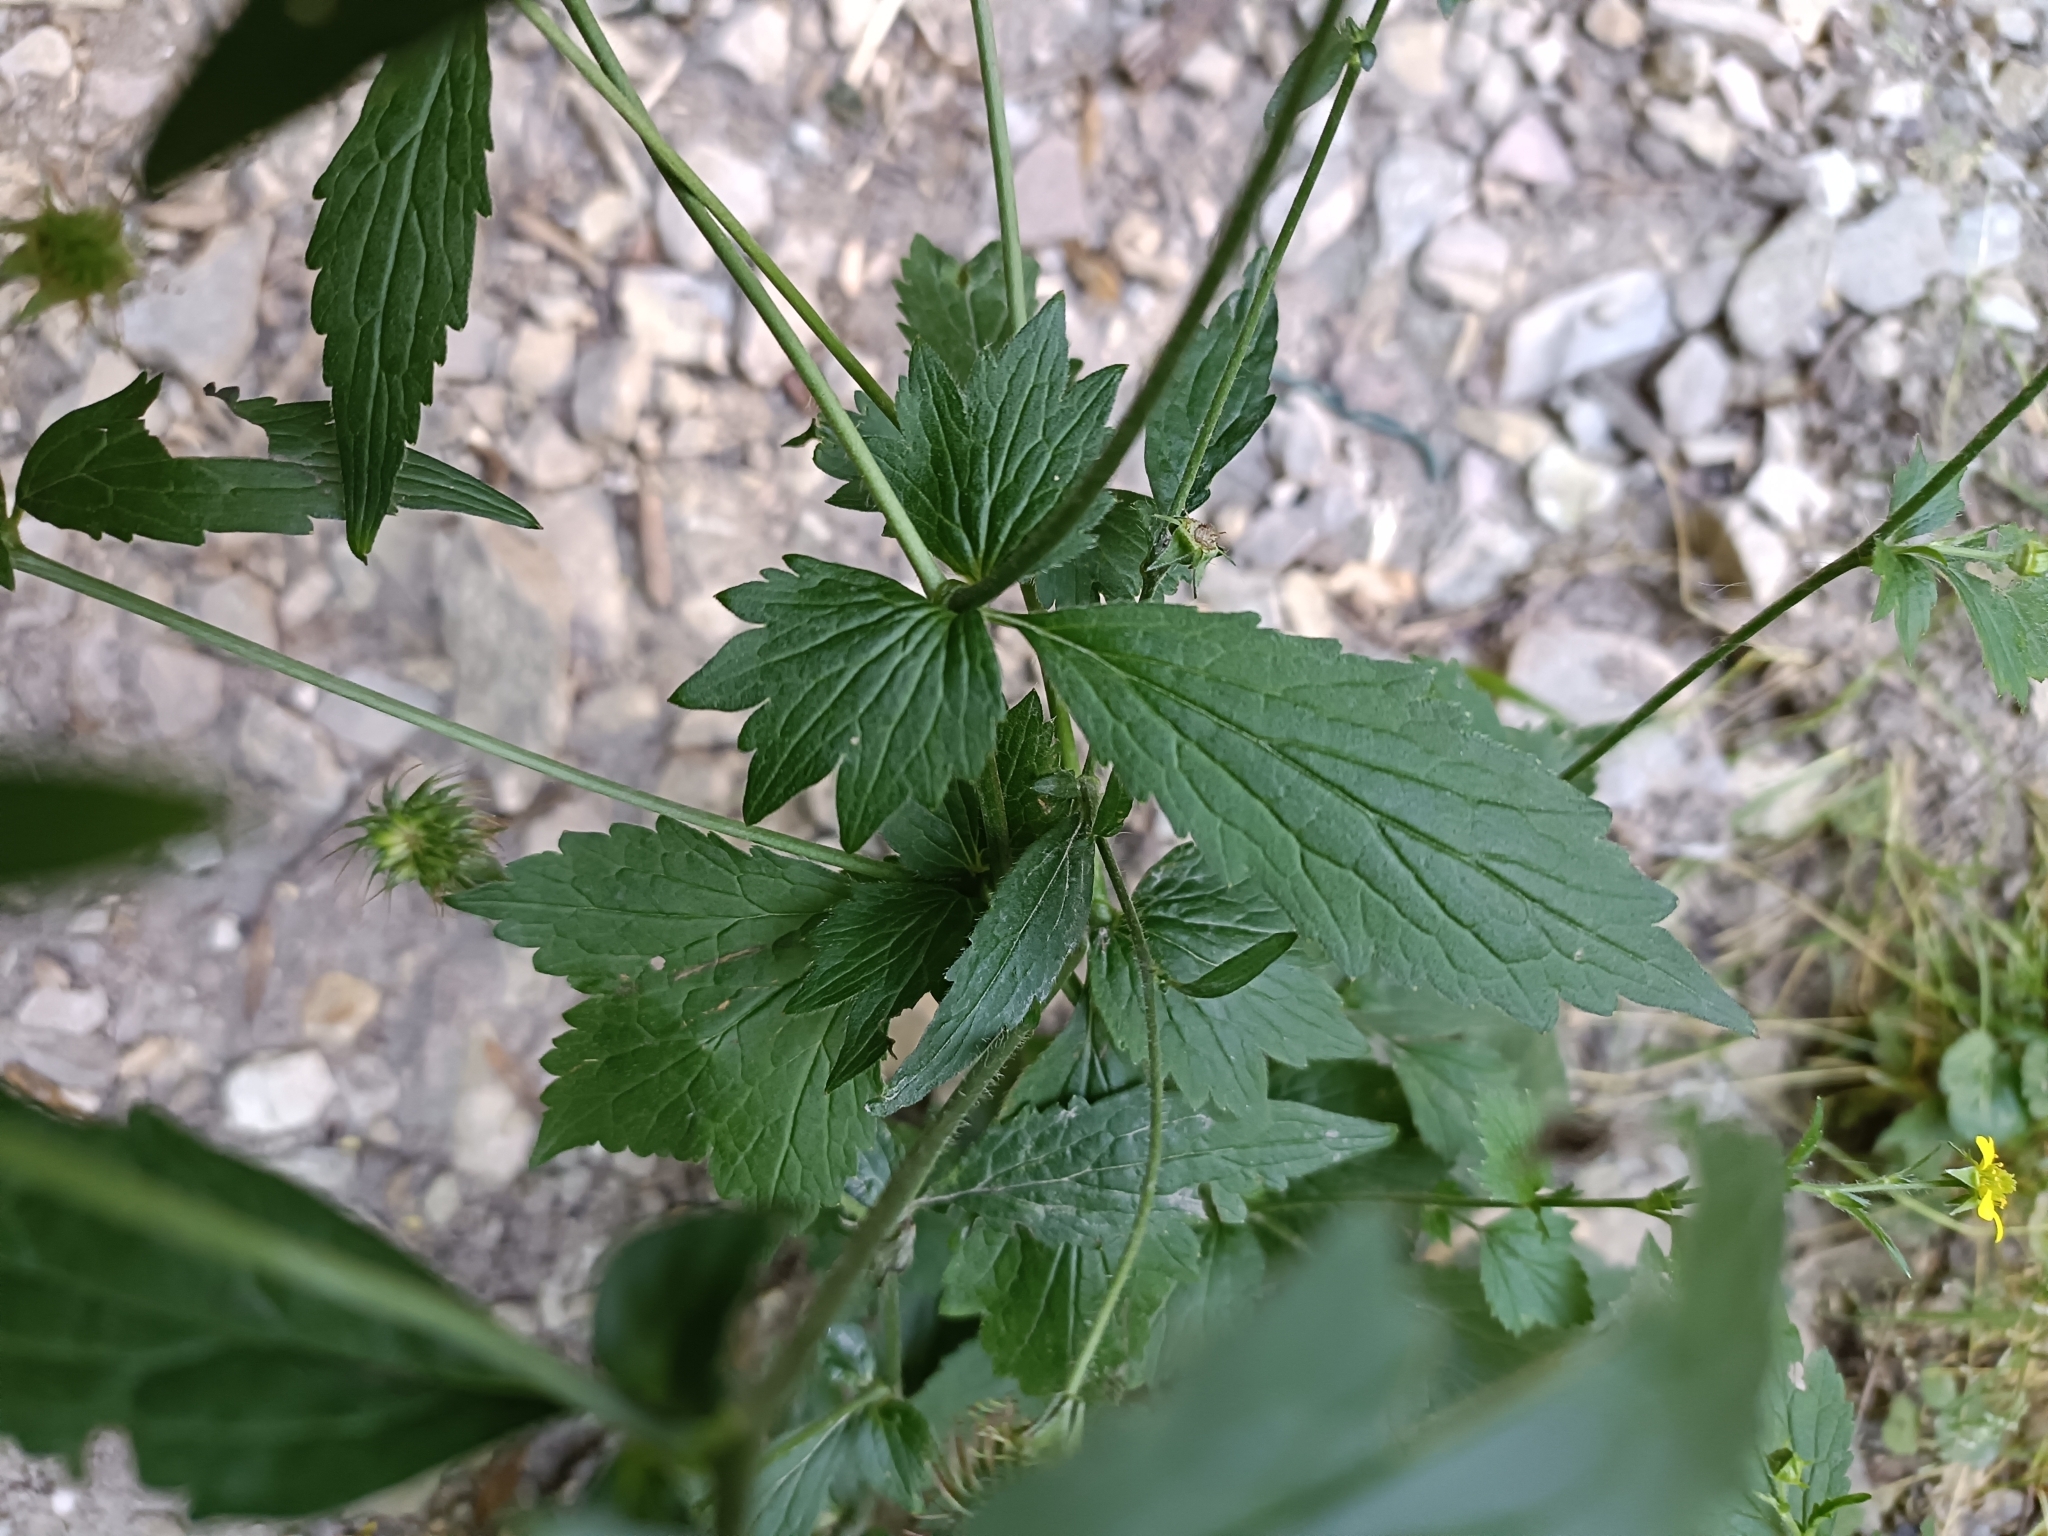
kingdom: Plantae
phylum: Tracheophyta
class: Magnoliopsida
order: Rosales
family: Rosaceae
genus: Geum
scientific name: Geum urbanum
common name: Wood avens
